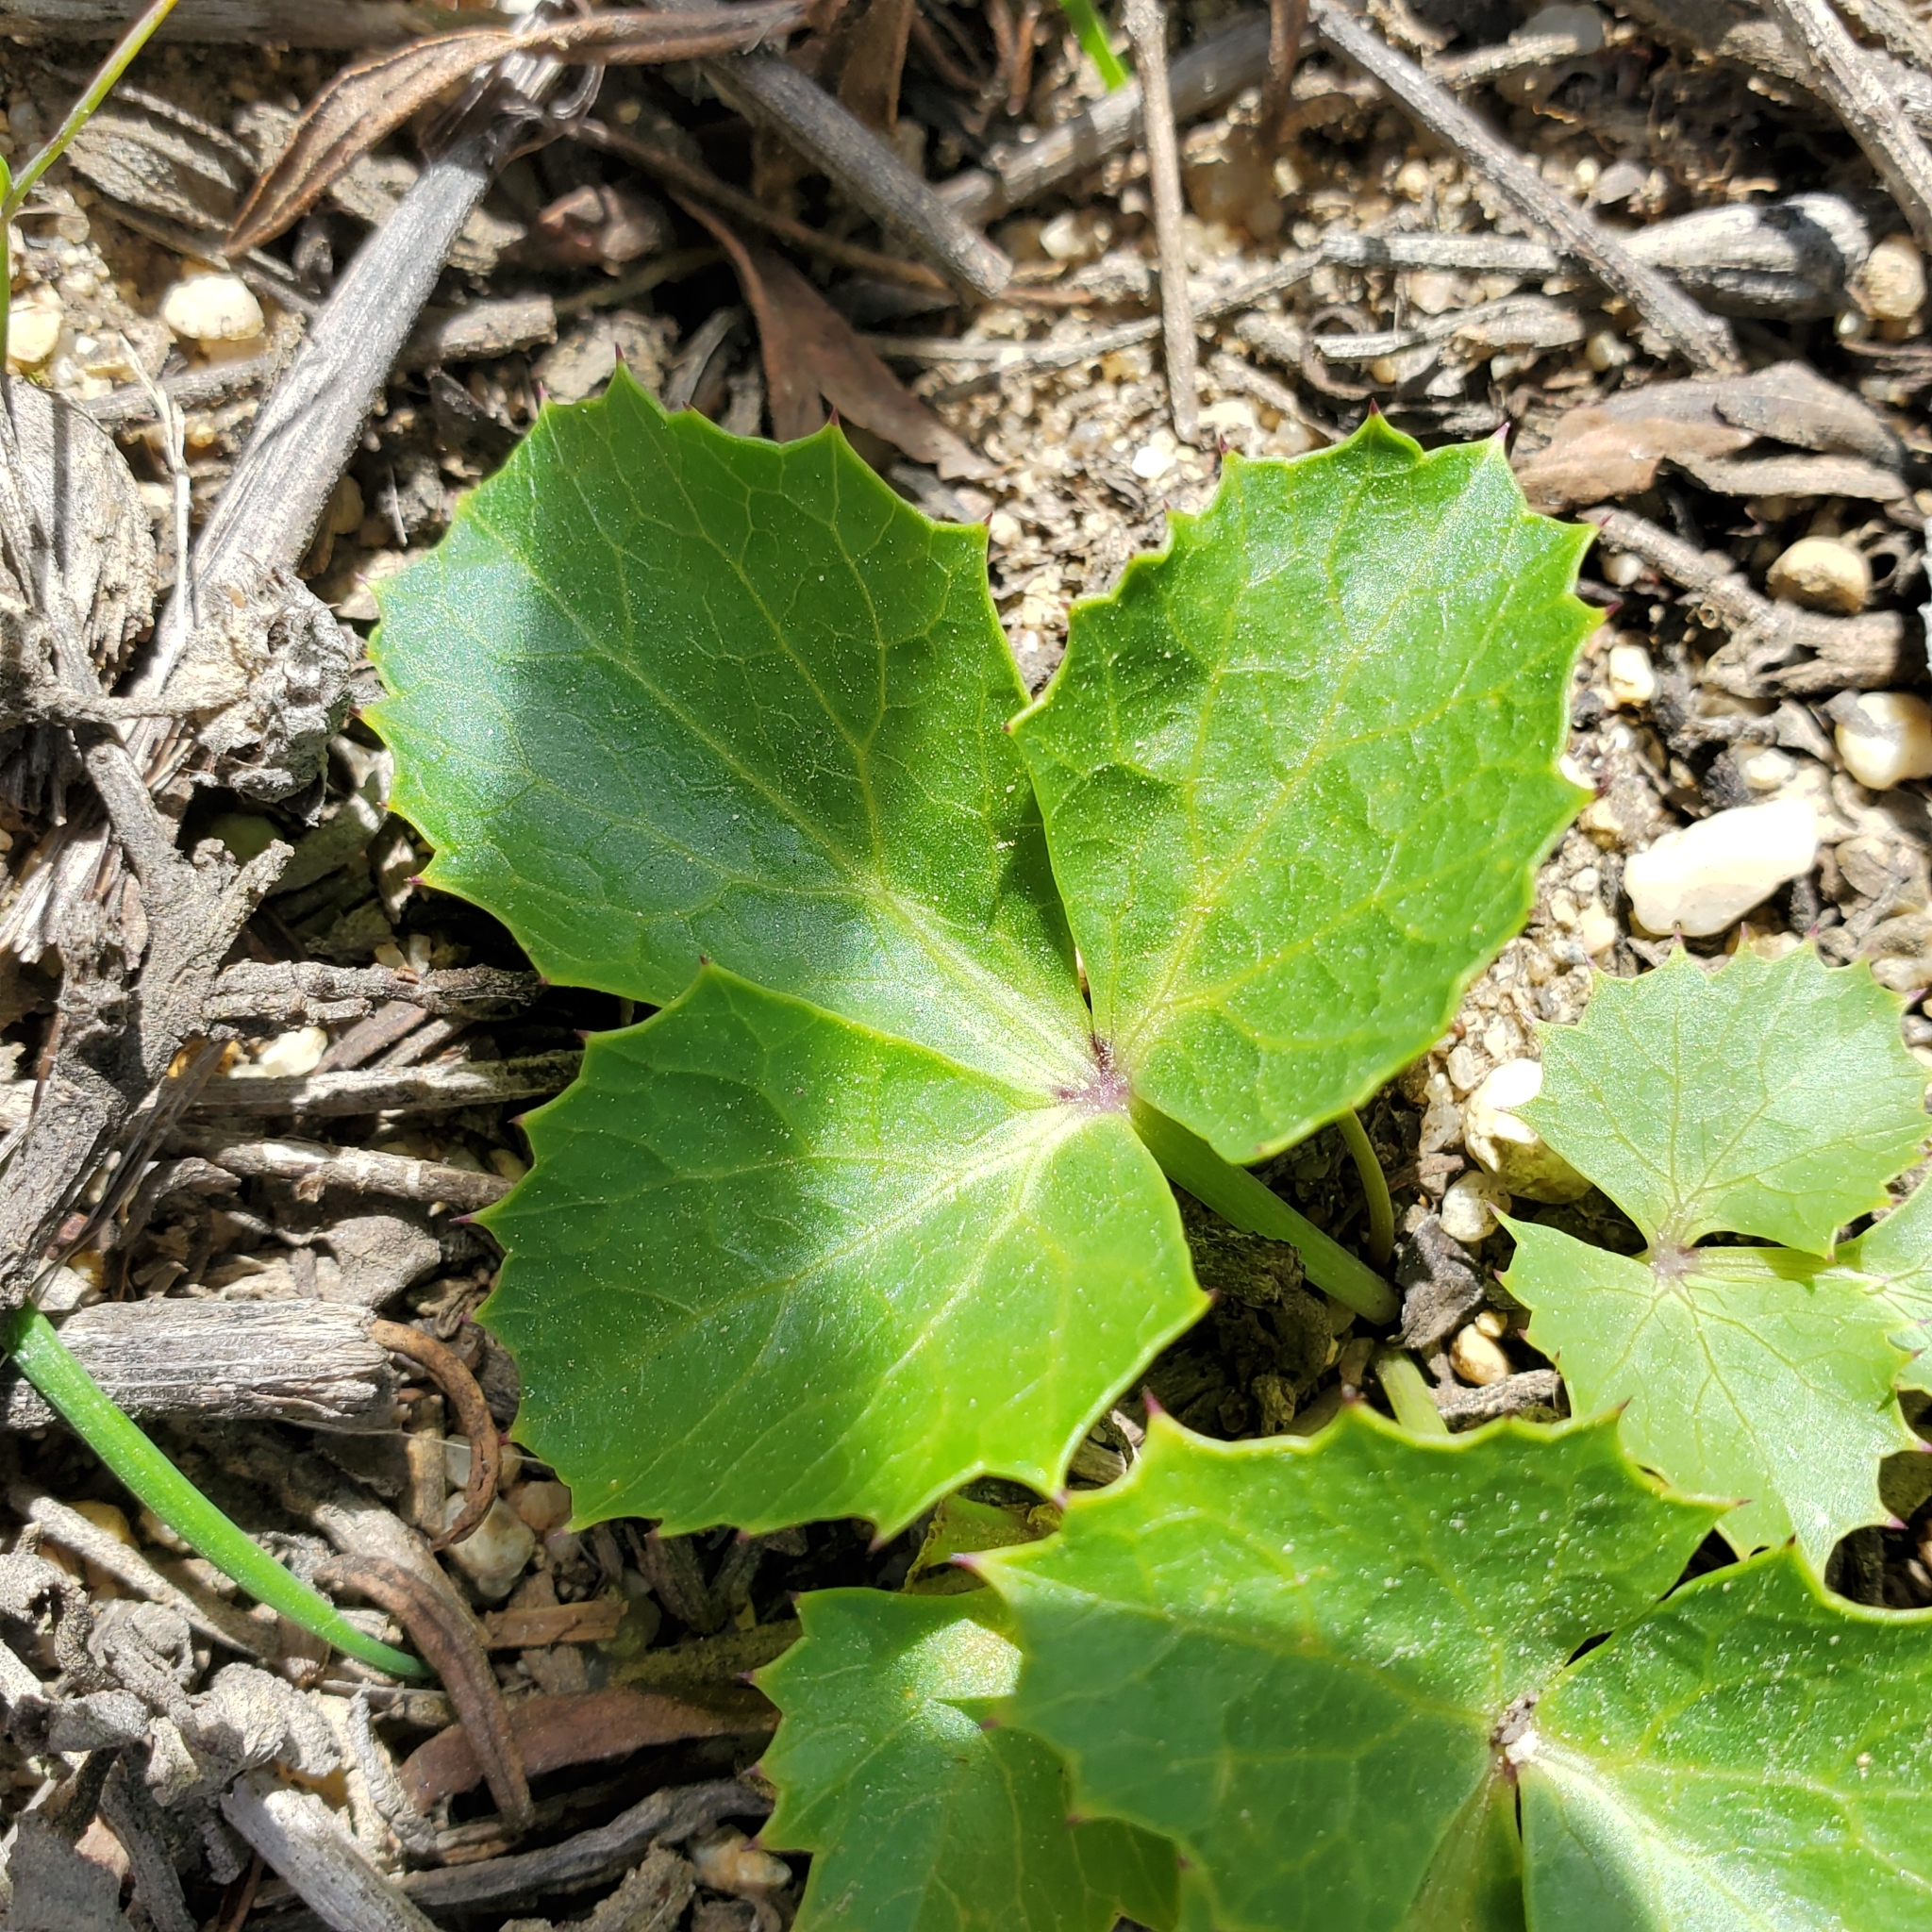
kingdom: Plantae
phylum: Tracheophyta
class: Magnoliopsida
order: Apiales
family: Apiaceae
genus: Lomatium
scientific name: Lomatium lucidum
